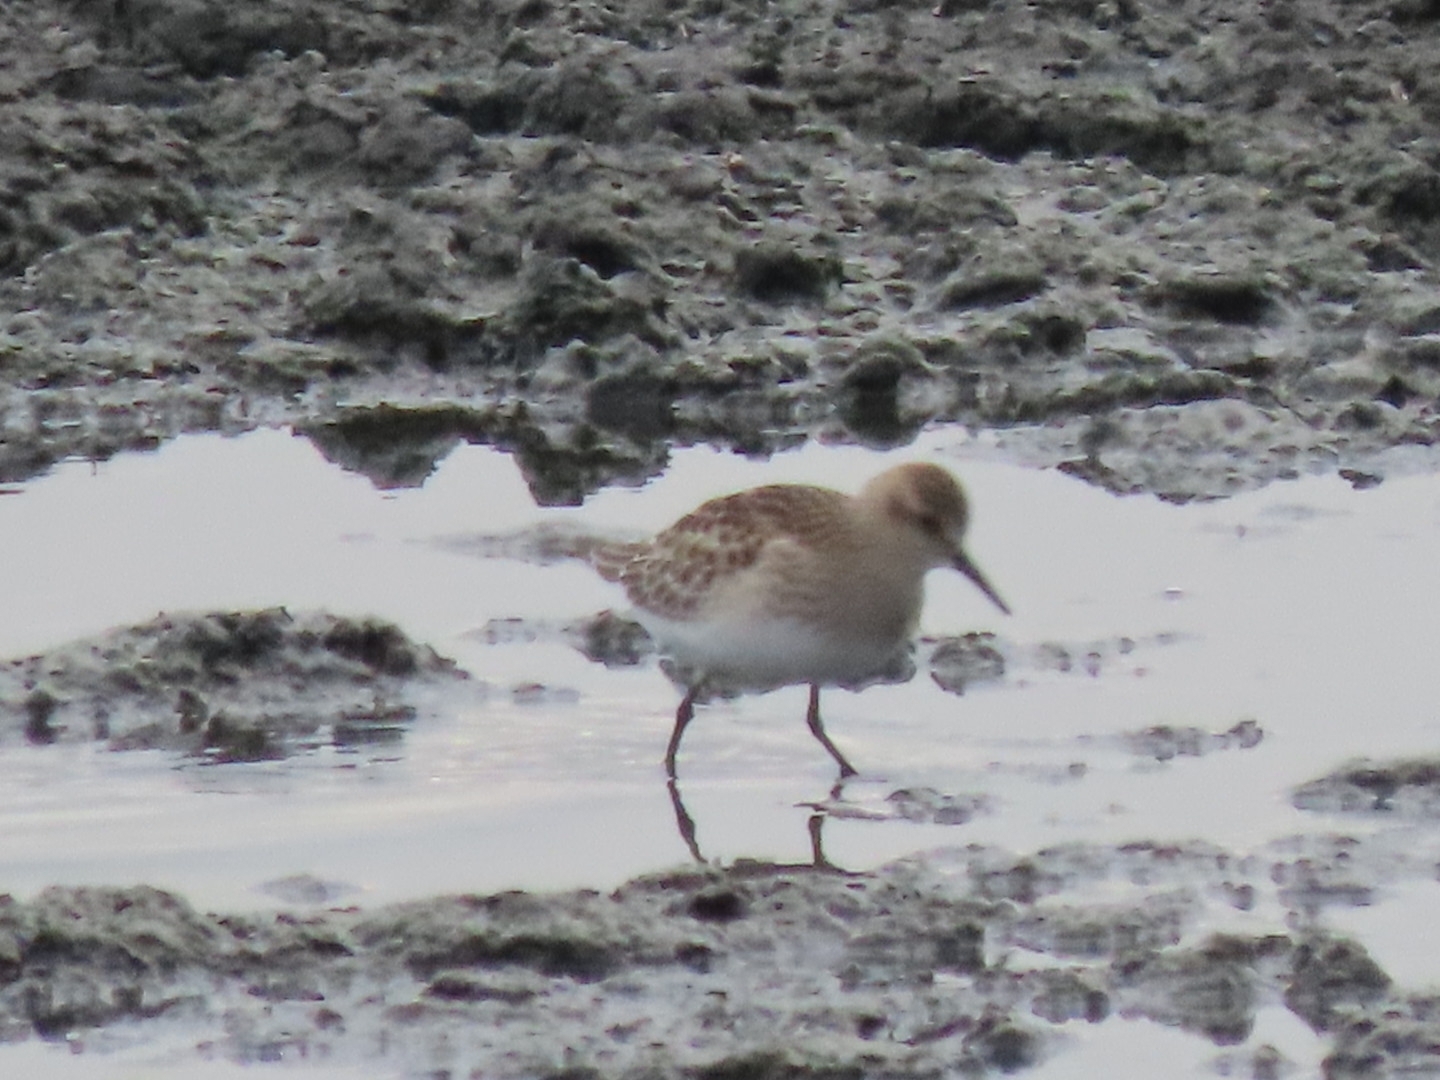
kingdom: Animalia
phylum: Chordata
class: Aves
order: Charadriiformes
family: Scolopacidae
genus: Calidris
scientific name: Calidris bairdii
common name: Baird's sandpiper
